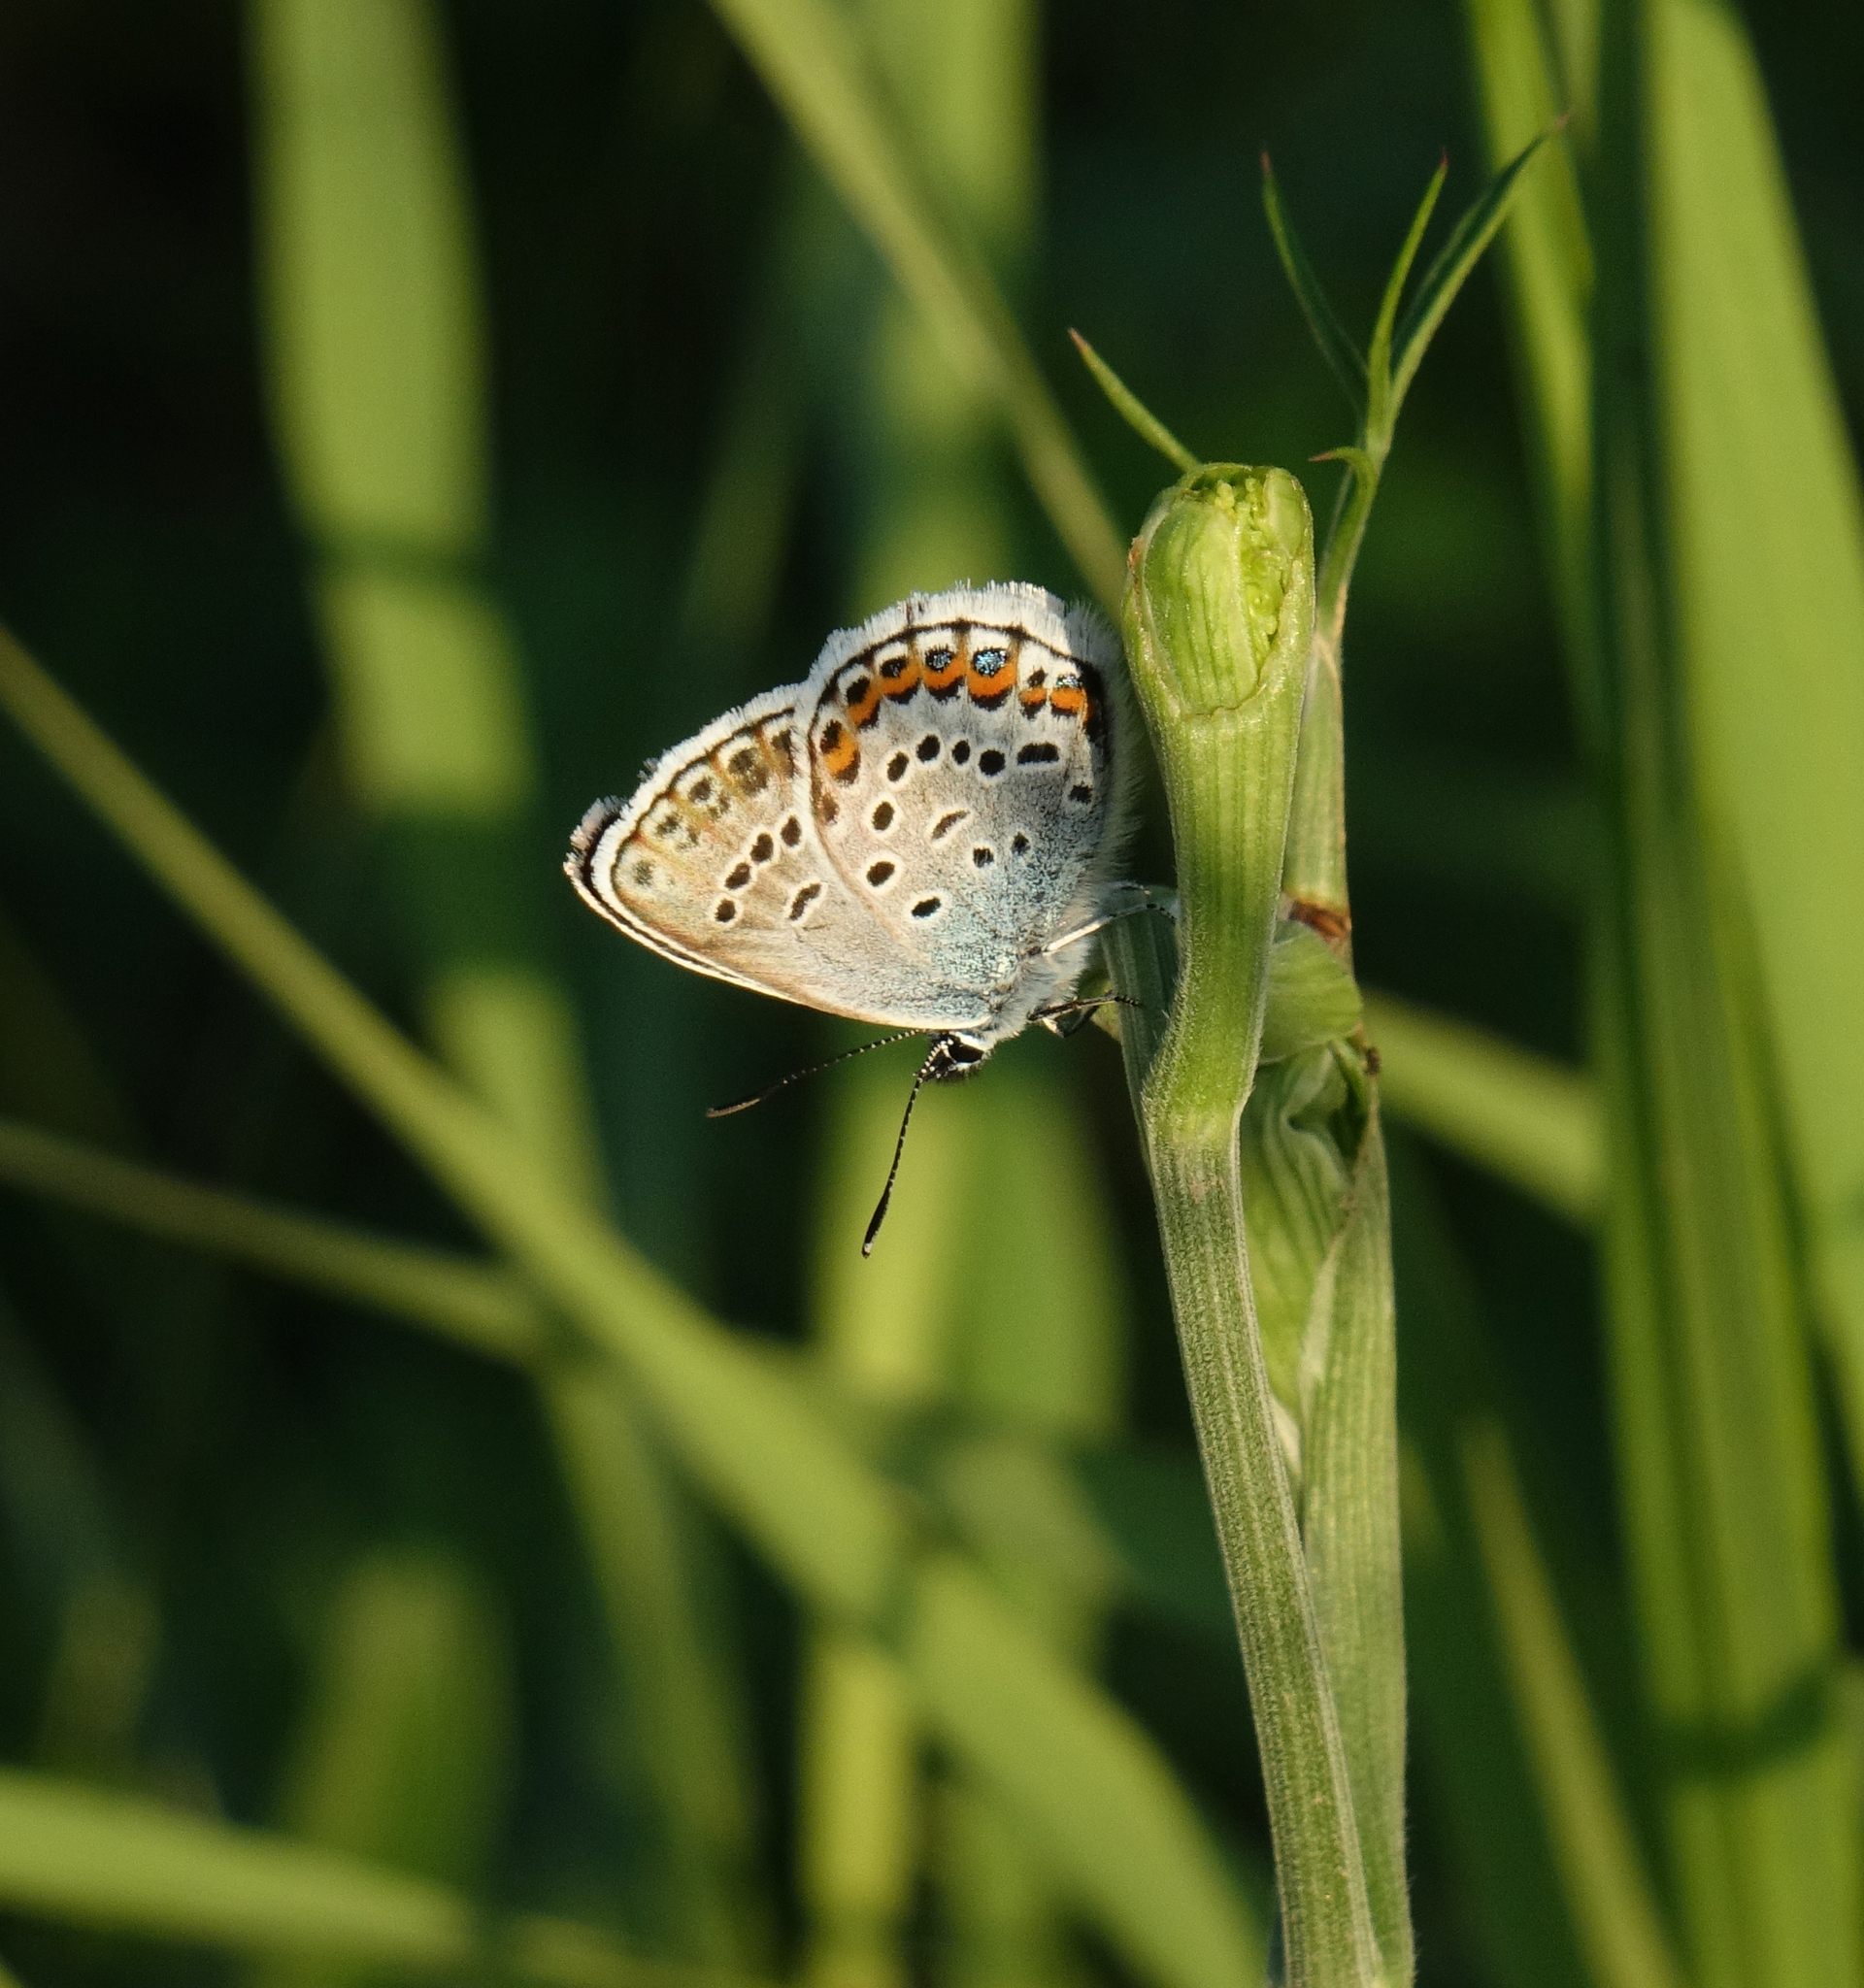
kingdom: Animalia
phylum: Arthropoda
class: Insecta
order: Lepidoptera
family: Lycaenidae
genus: Plebejus
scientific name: Plebejus argus
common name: Silver-studded blue
